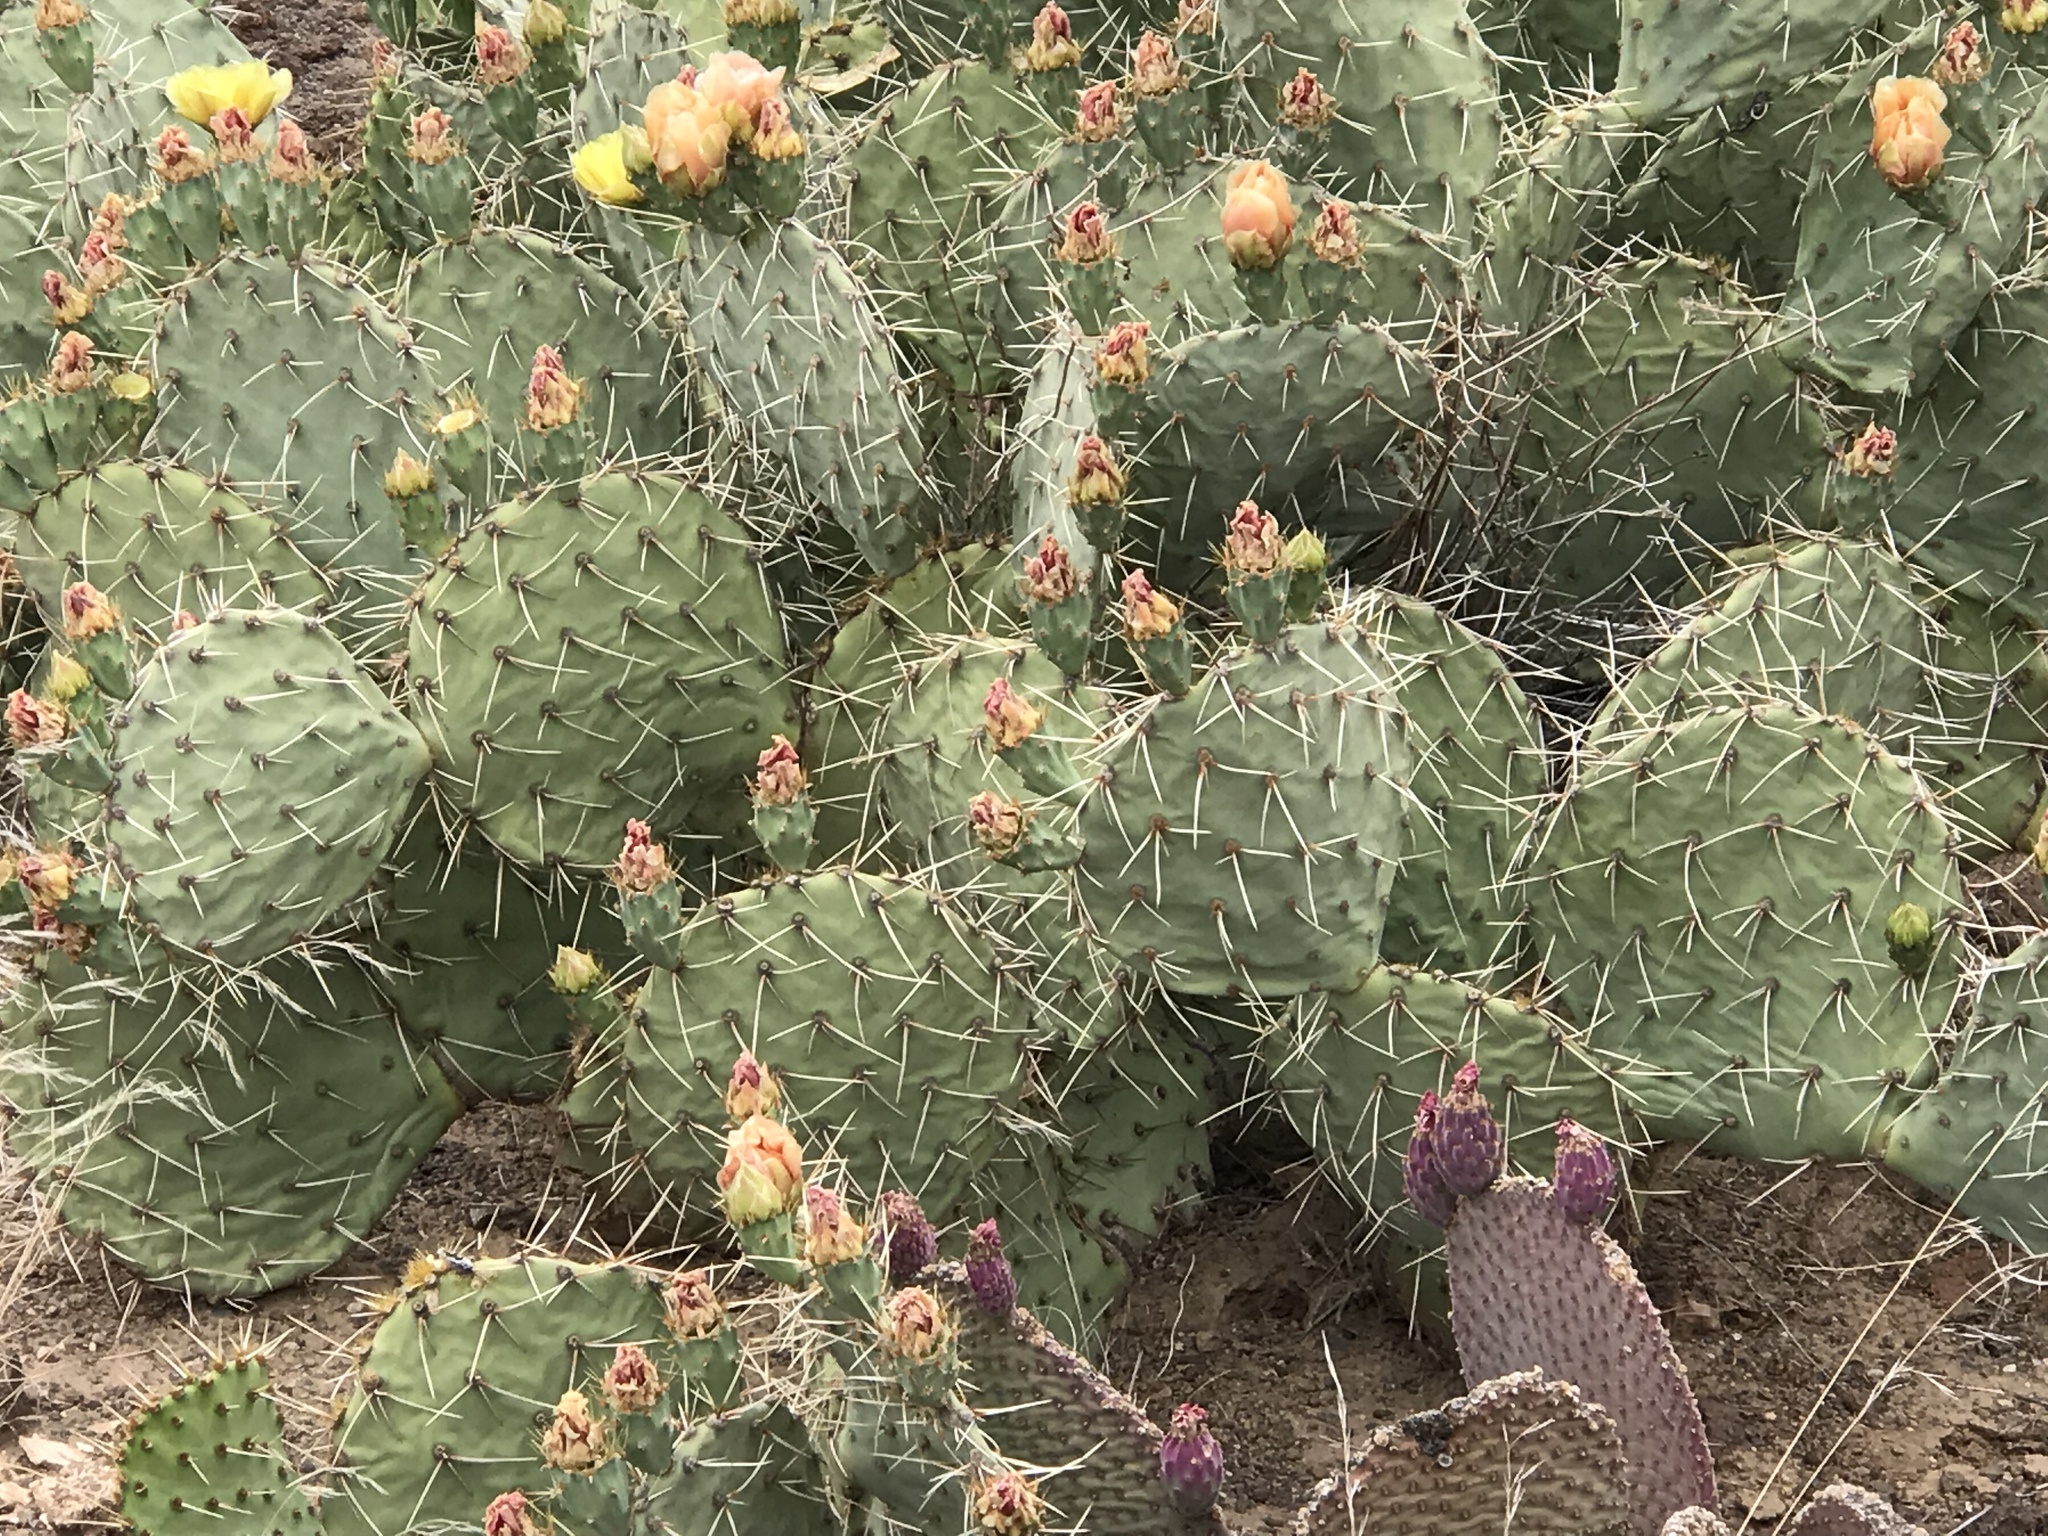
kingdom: Plantae
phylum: Tracheophyta
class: Magnoliopsida
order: Caryophyllales
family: Cactaceae
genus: Opuntia
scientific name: Opuntia engelmannii
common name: Cactus-apple
